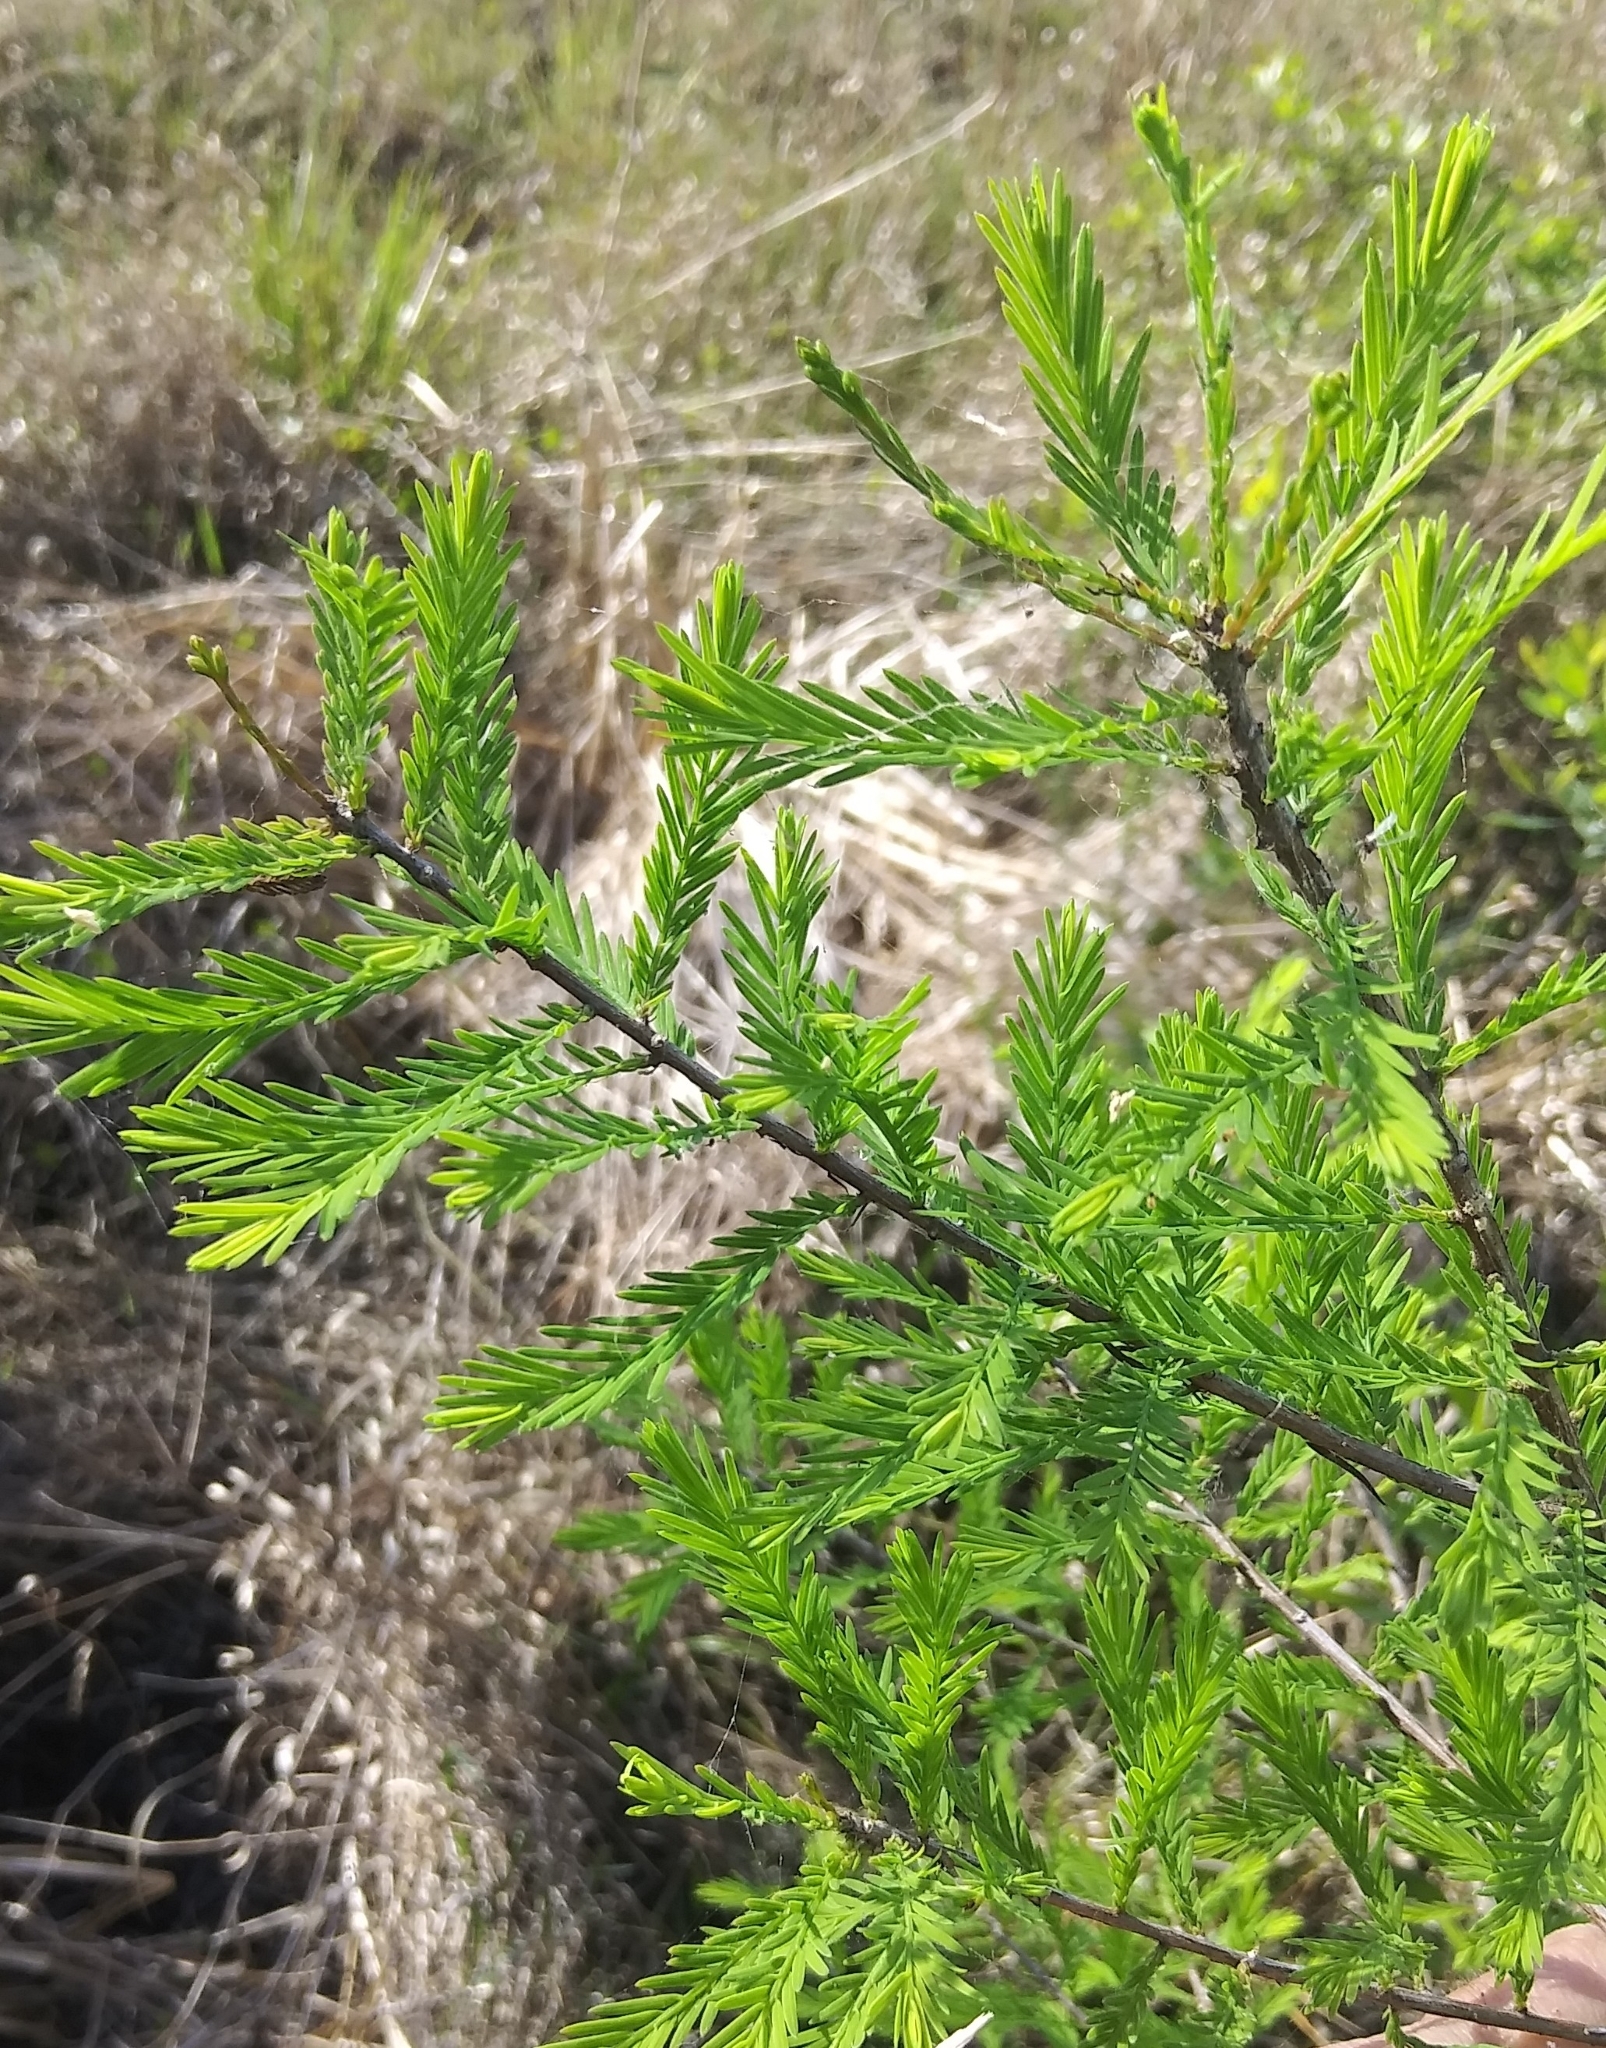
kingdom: Plantae
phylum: Tracheophyta
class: Pinopsida
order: Pinales
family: Cupressaceae
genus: Taxodium
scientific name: Taxodium distichum
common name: Bald cypress
